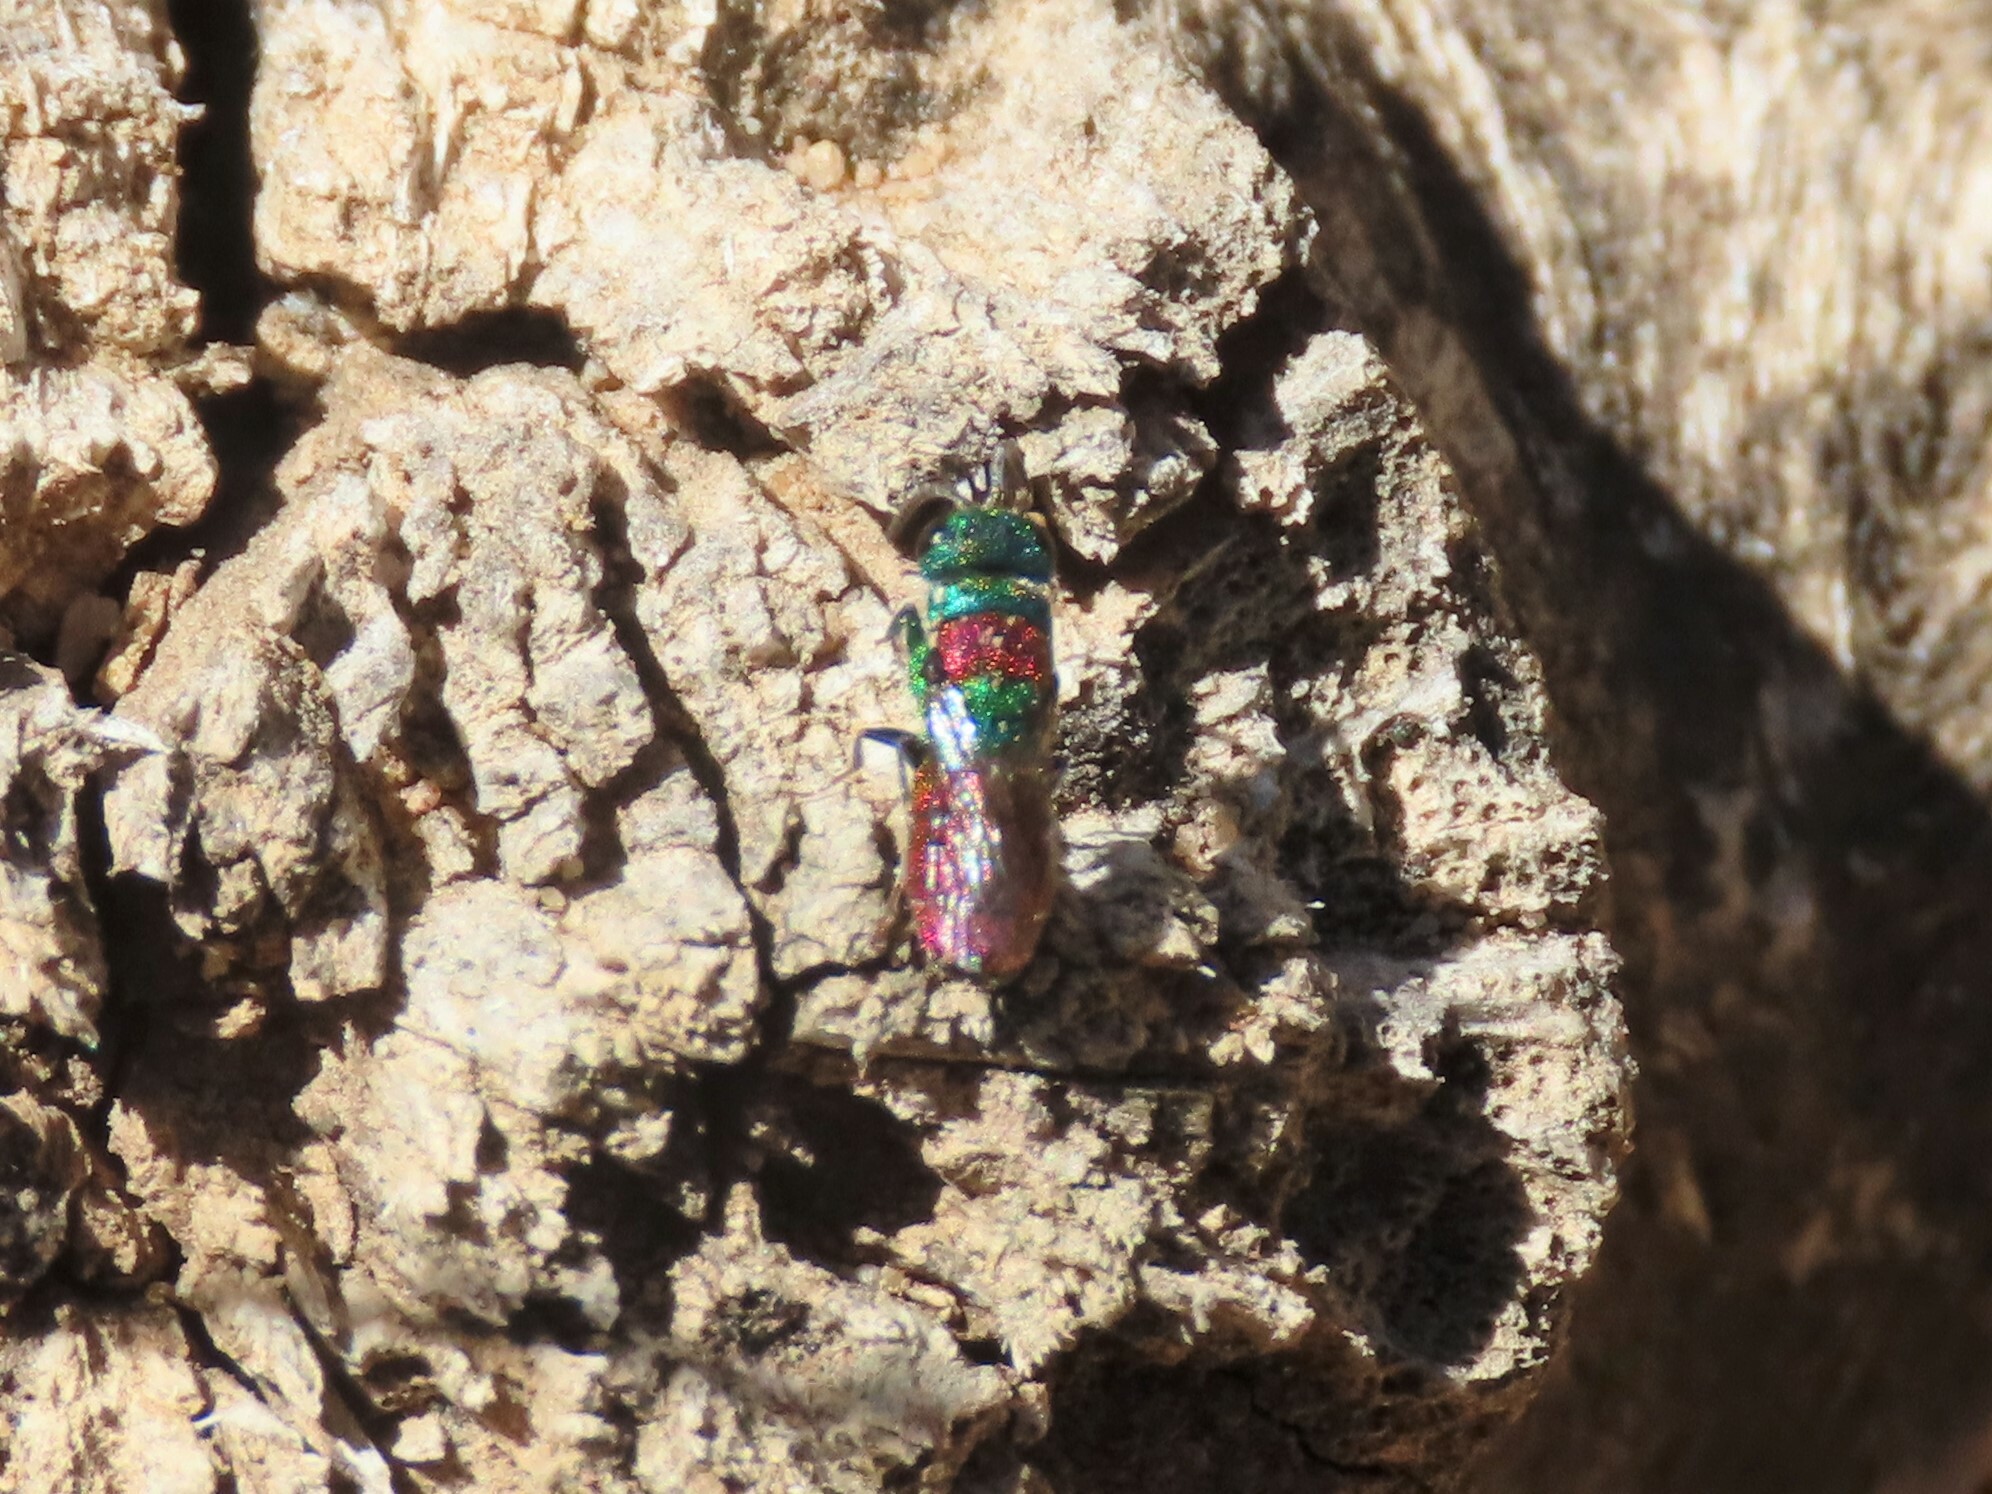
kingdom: Animalia
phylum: Arthropoda
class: Insecta
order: Hymenoptera
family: Chrysididae
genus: Chrysis
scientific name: Chrysis
